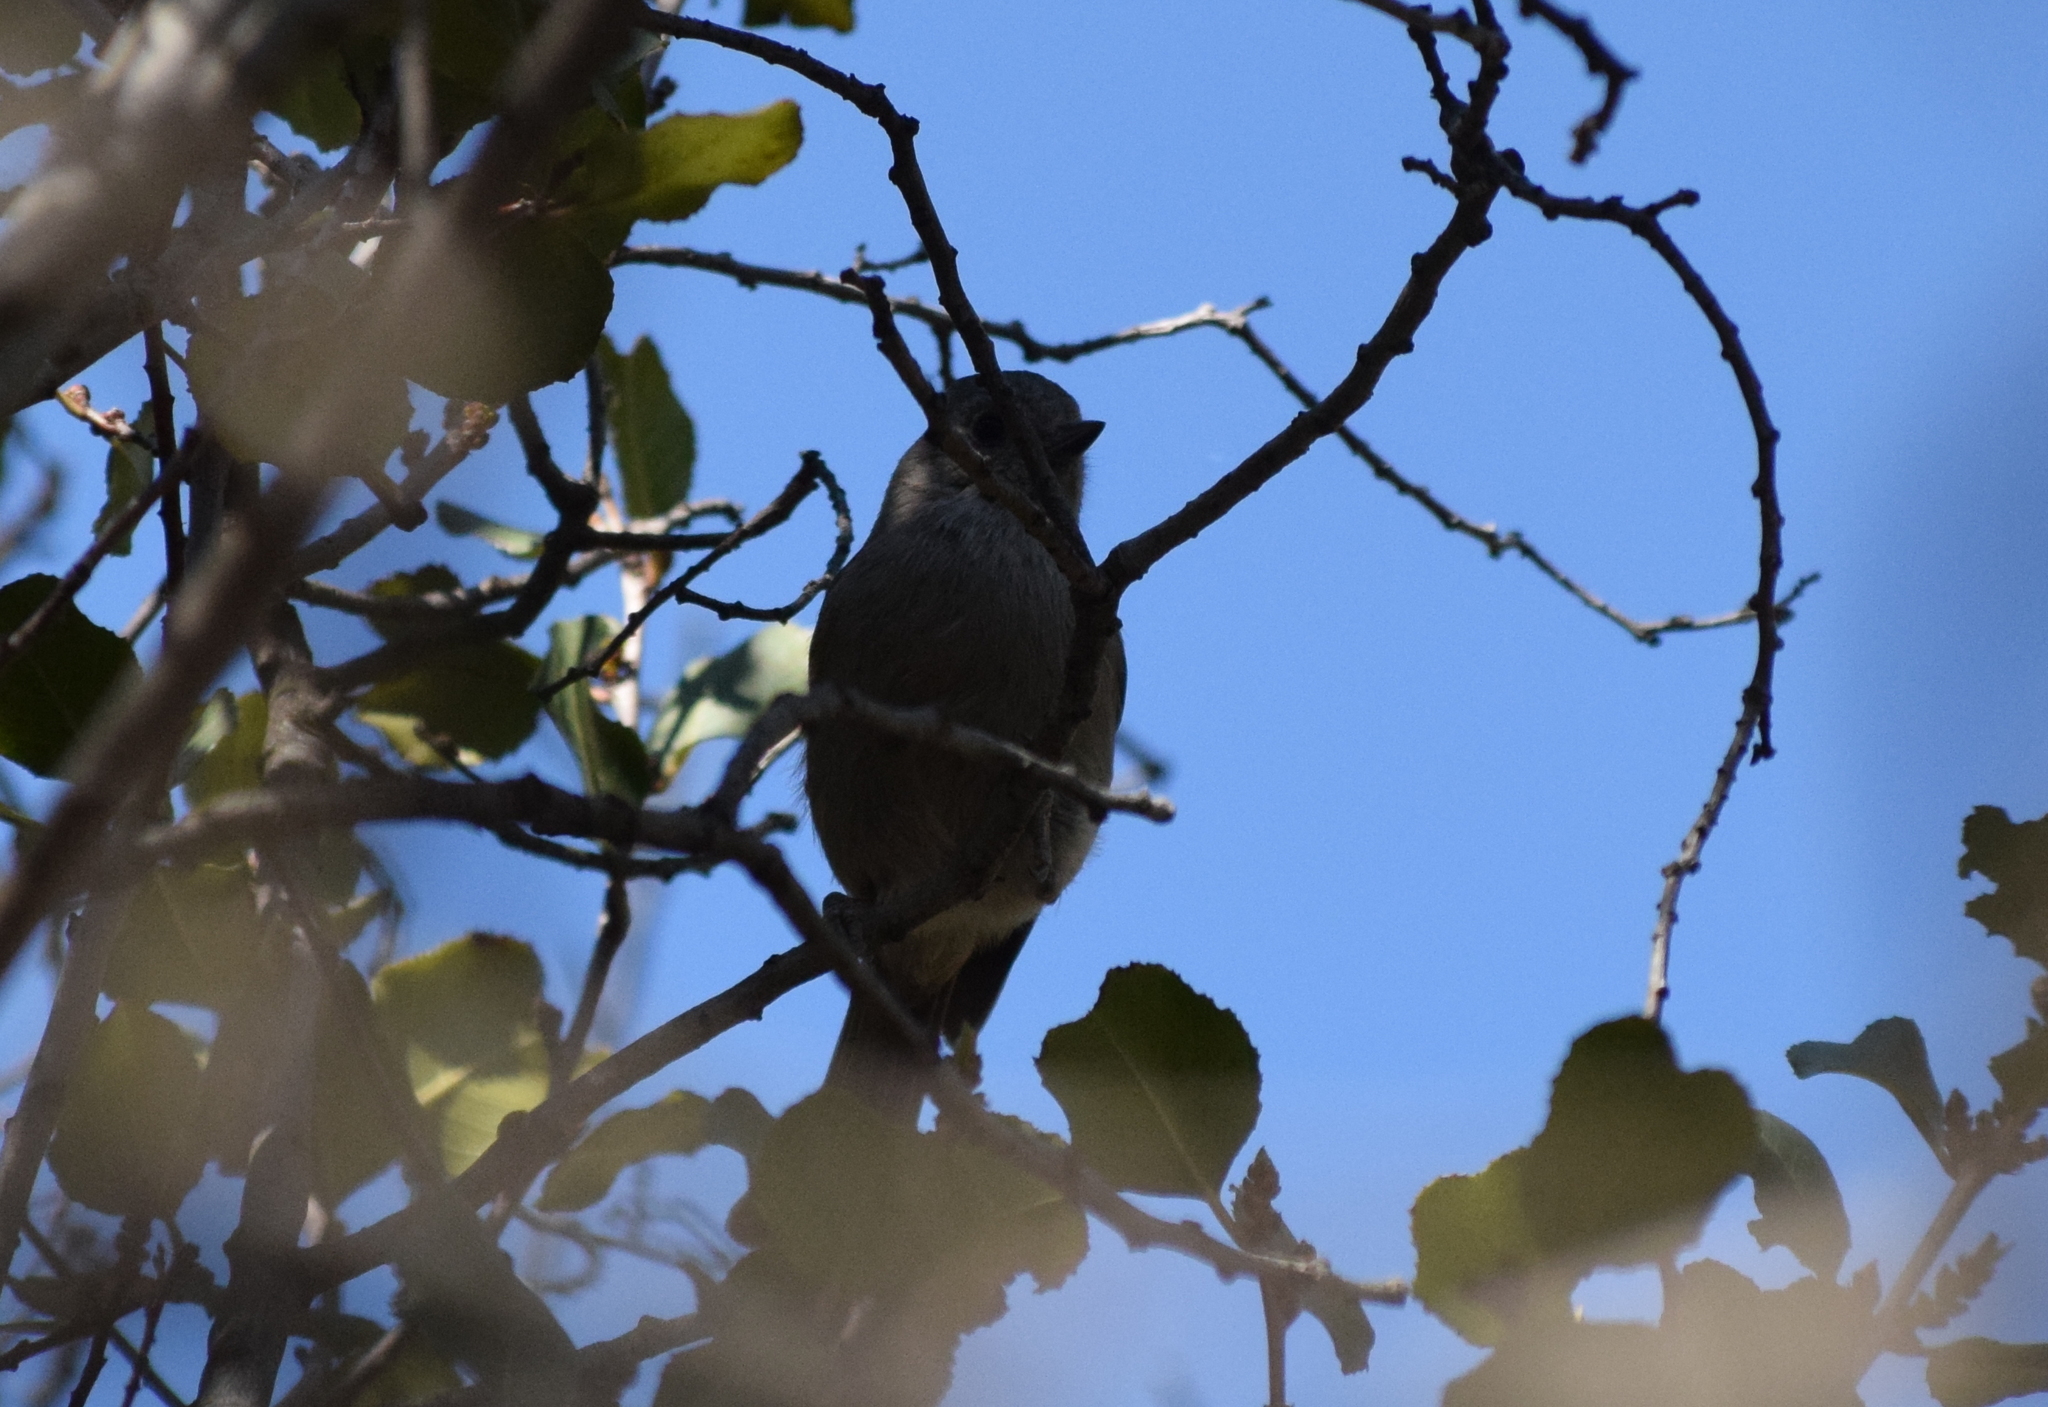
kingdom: Animalia
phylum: Chordata
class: Aves
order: Passeriformes
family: Paridae
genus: Baeolophus
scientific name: Baeolophus inornatus
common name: Oak titmouse
